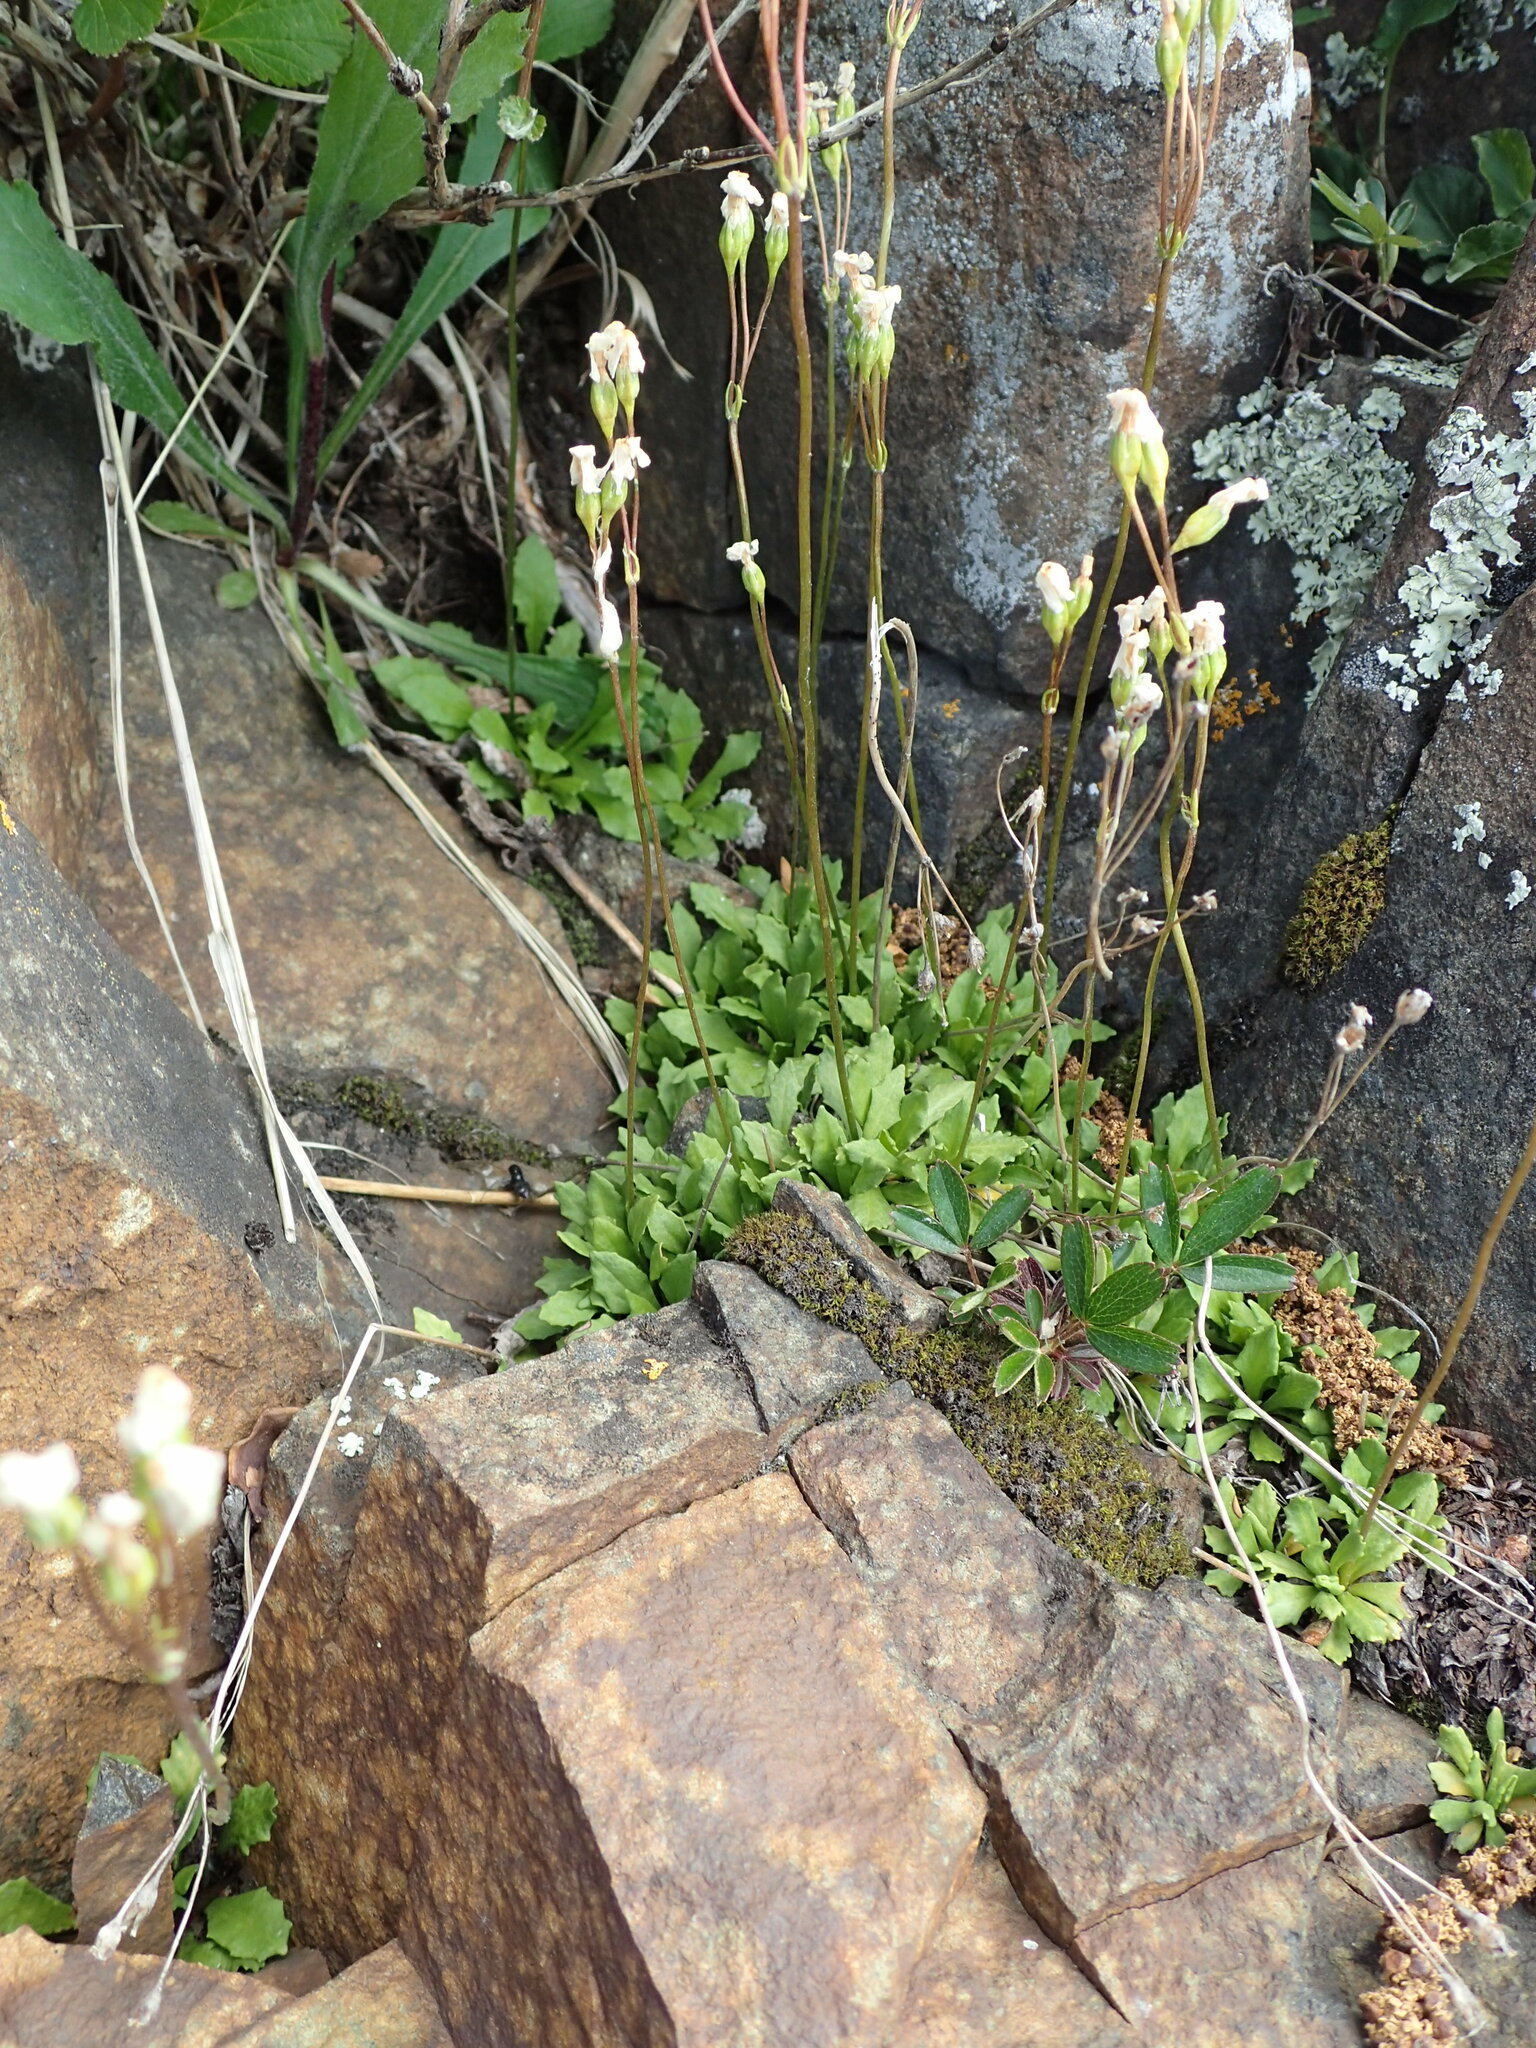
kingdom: Plantae
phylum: Tracheophyta
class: Magnoliopsida
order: Ericales
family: Primulaceae
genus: Primula
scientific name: Primula mistassinica
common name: Bird's-eye primrose
